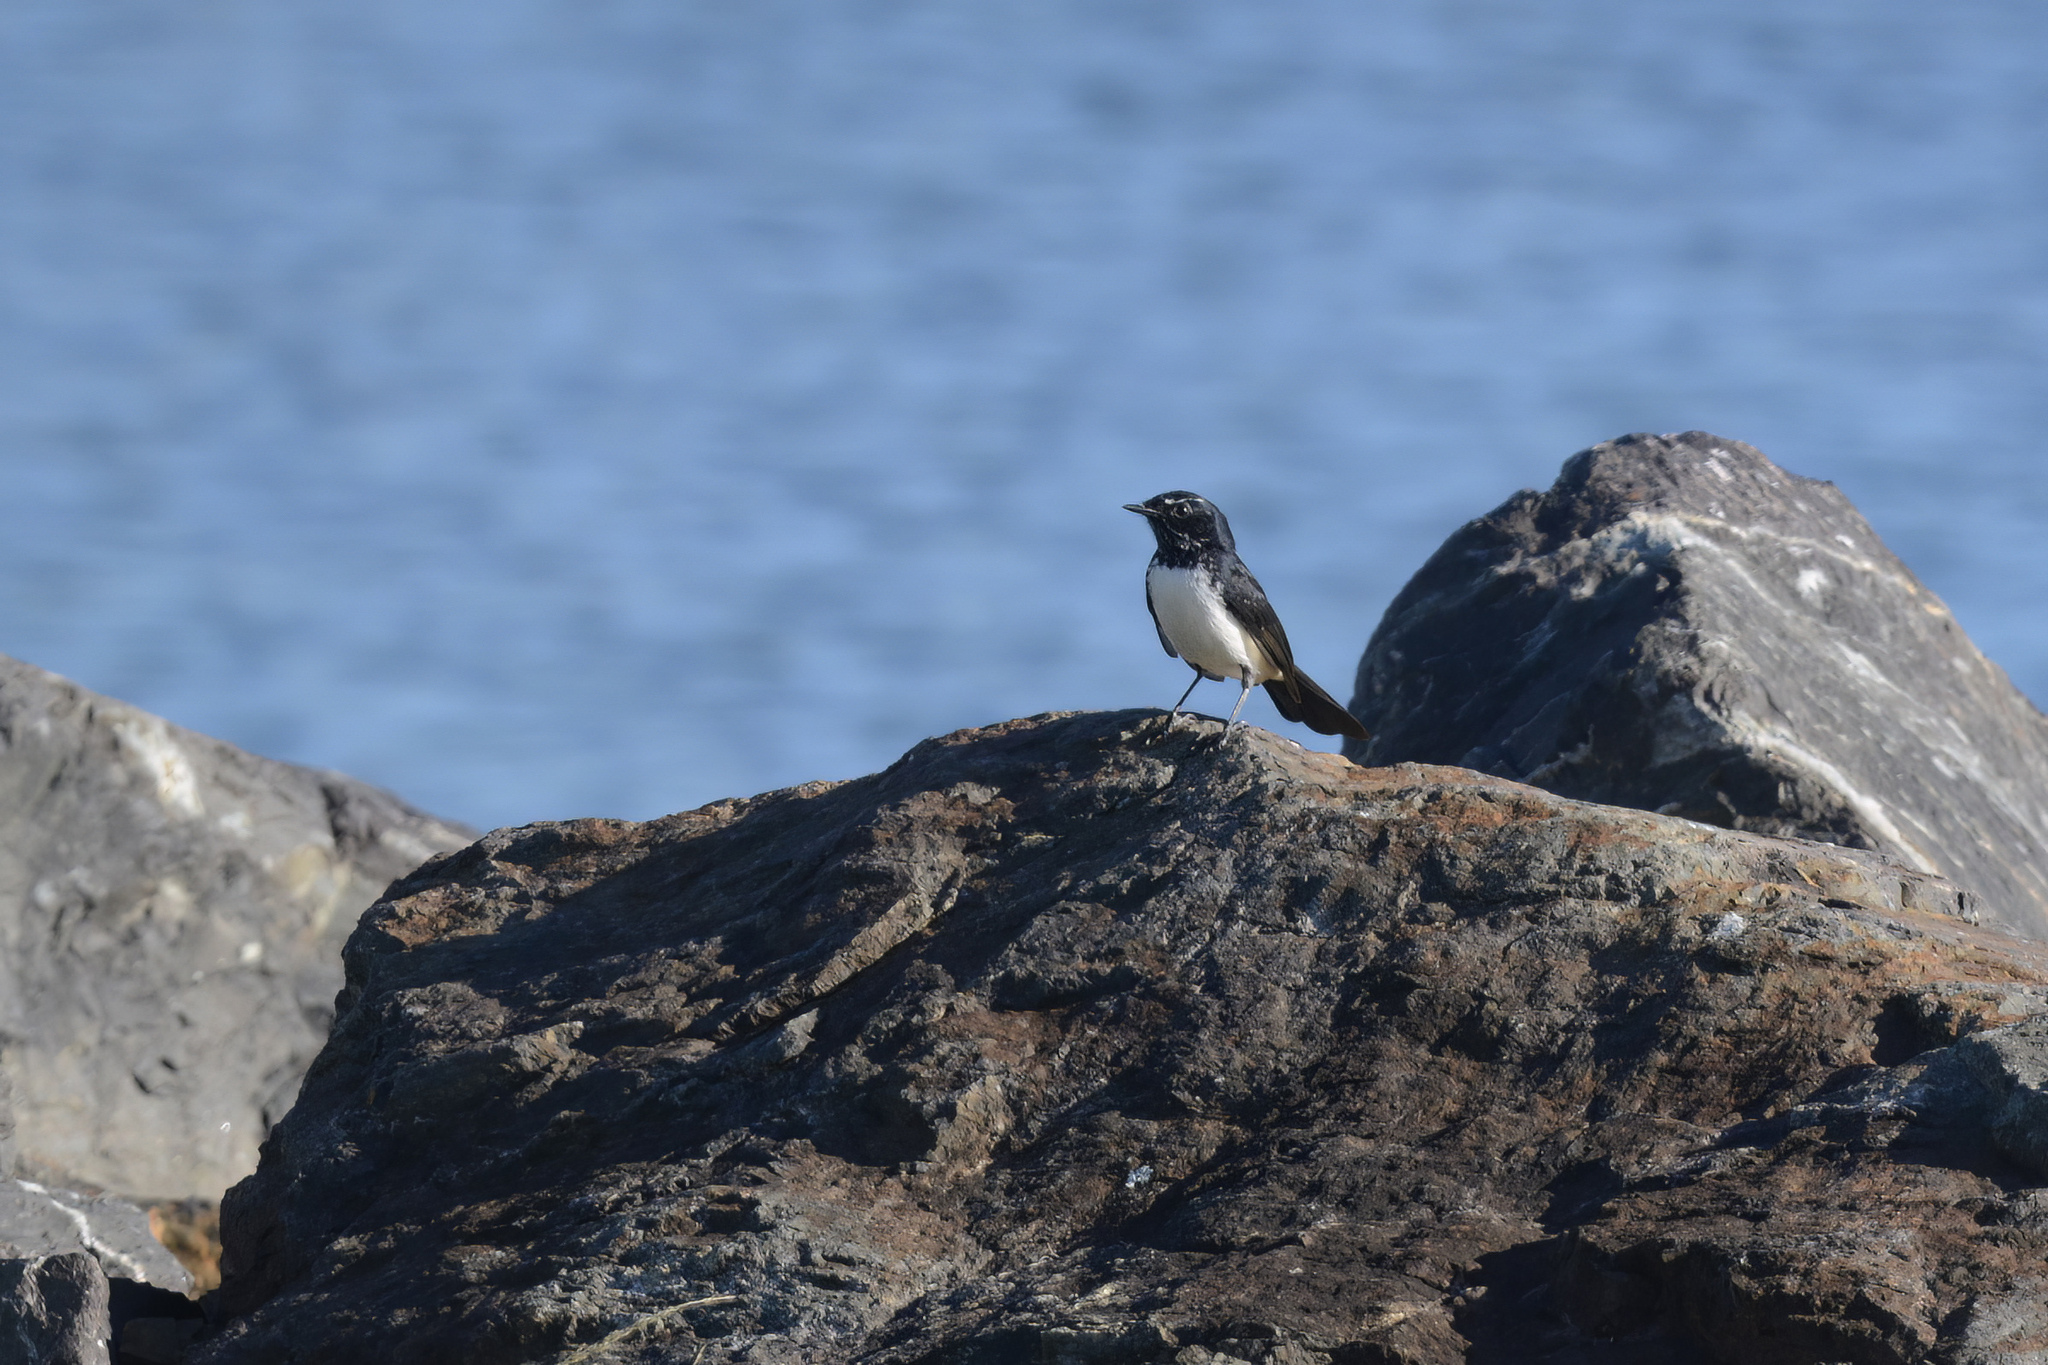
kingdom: Animalia
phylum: Chordata
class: Aves
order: Passeriformes
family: Rhipiduridae
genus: Rhipidura
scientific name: Rhipidura leucophrys
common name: Willie wagtail
